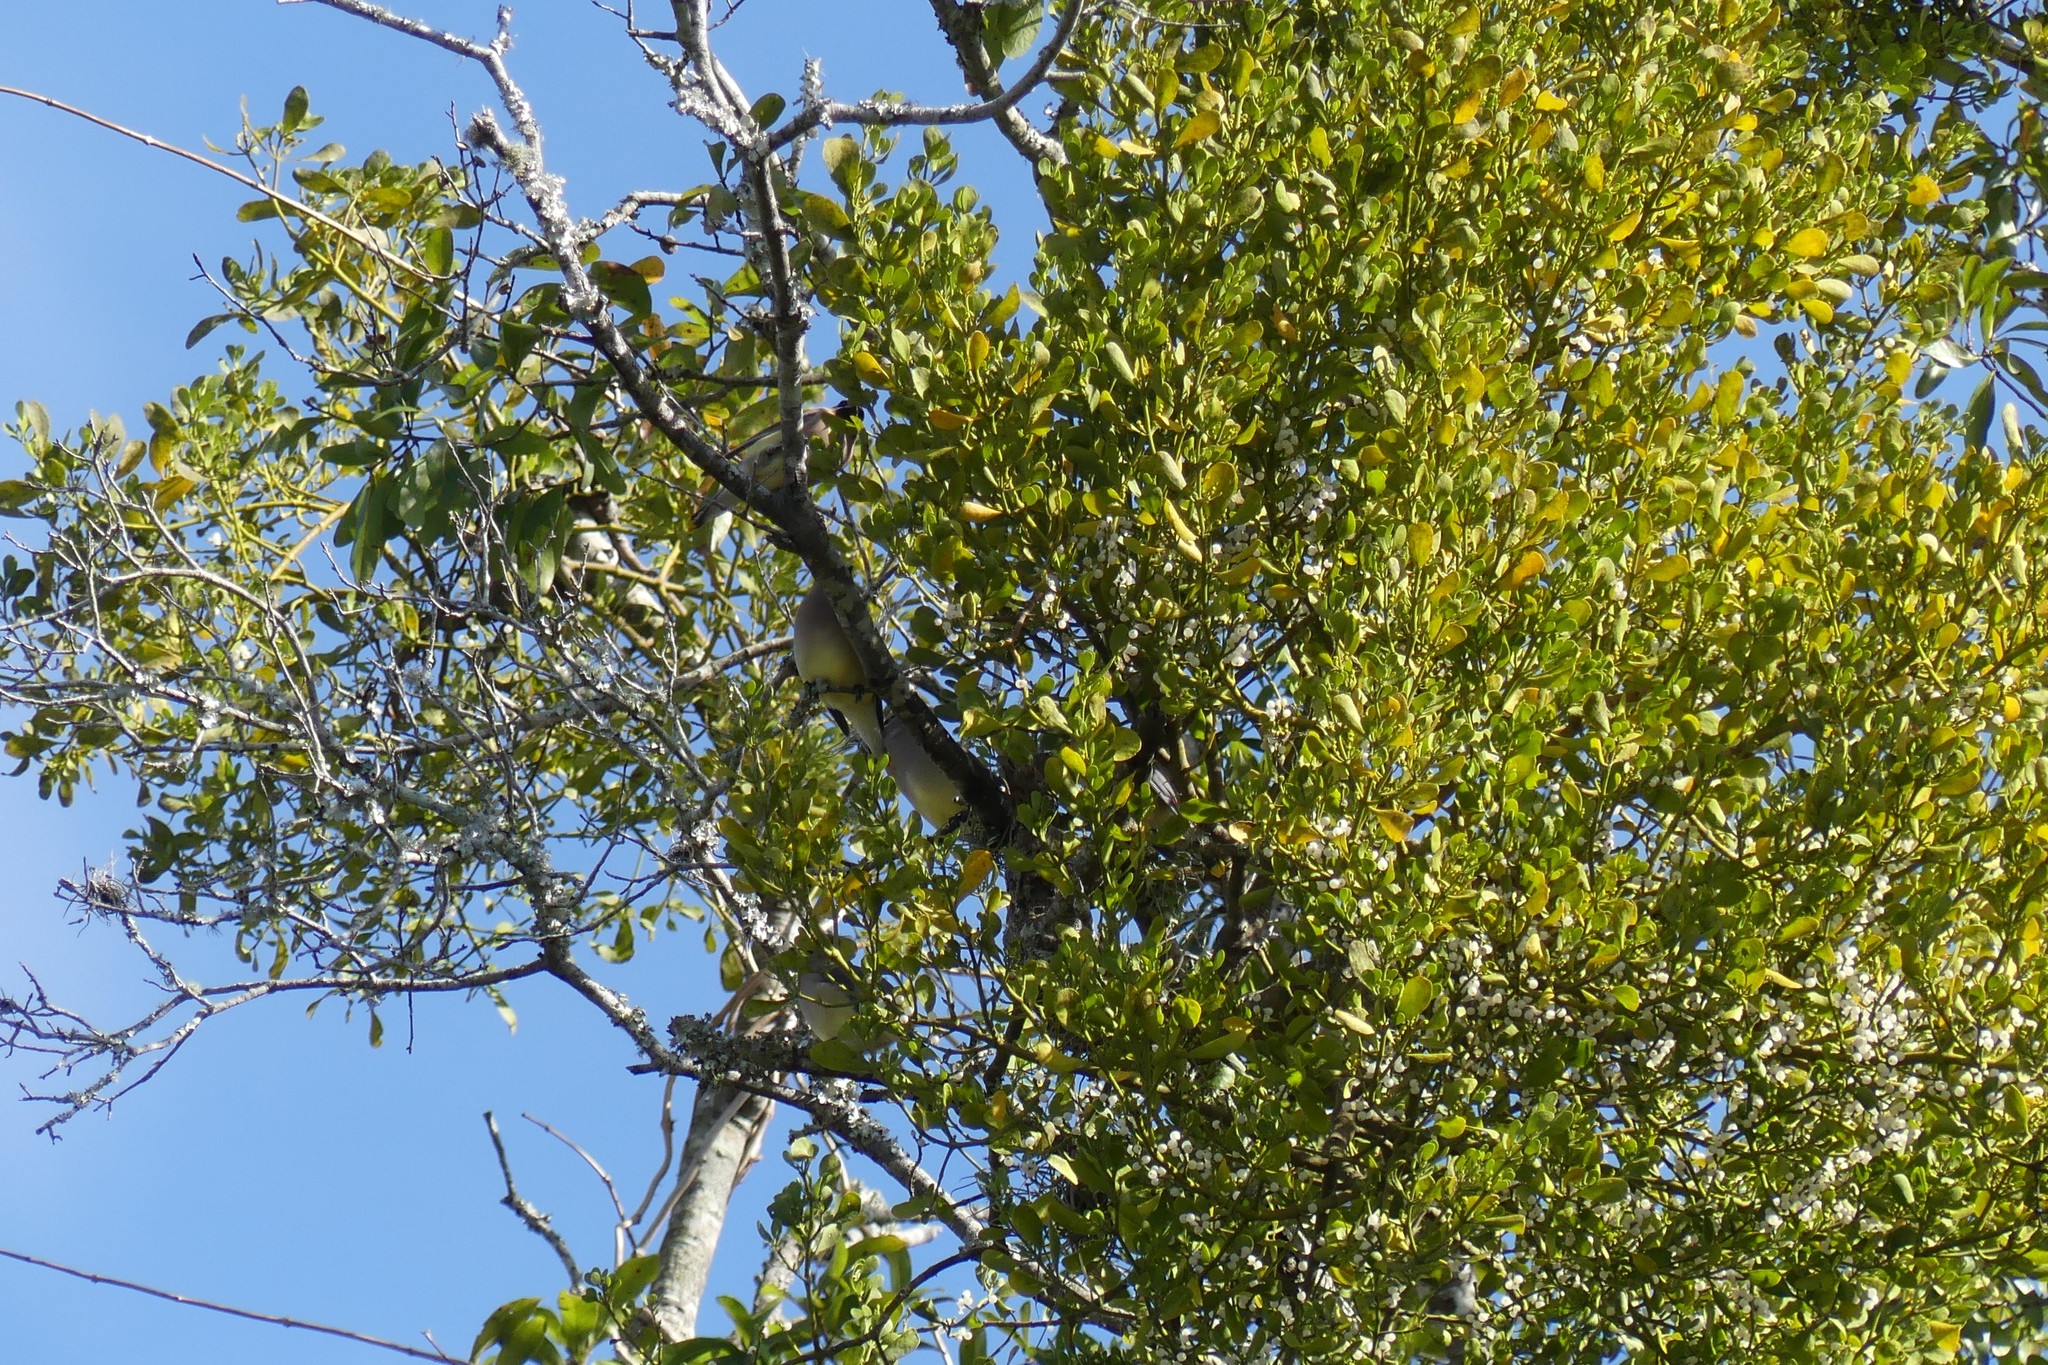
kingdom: Animalia
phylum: Chordata
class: Aves
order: Passeriformes
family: Bombycillidae
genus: Bombycilla
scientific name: Bombycilla cedrorum
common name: Cedar waxwing
